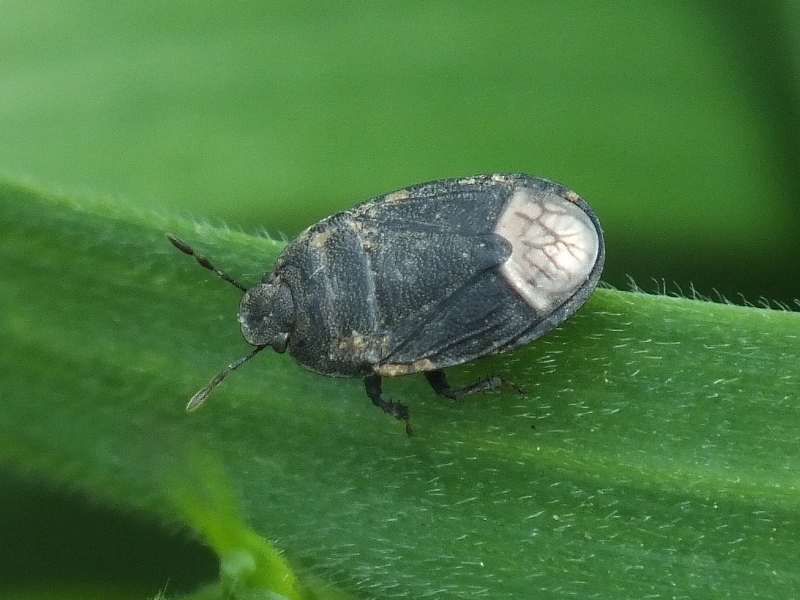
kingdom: Animalia
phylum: Arthropoda
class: Insecta
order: Hemiptera
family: Cydnidae
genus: Ochetostethus
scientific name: Ochetostethus opacus
